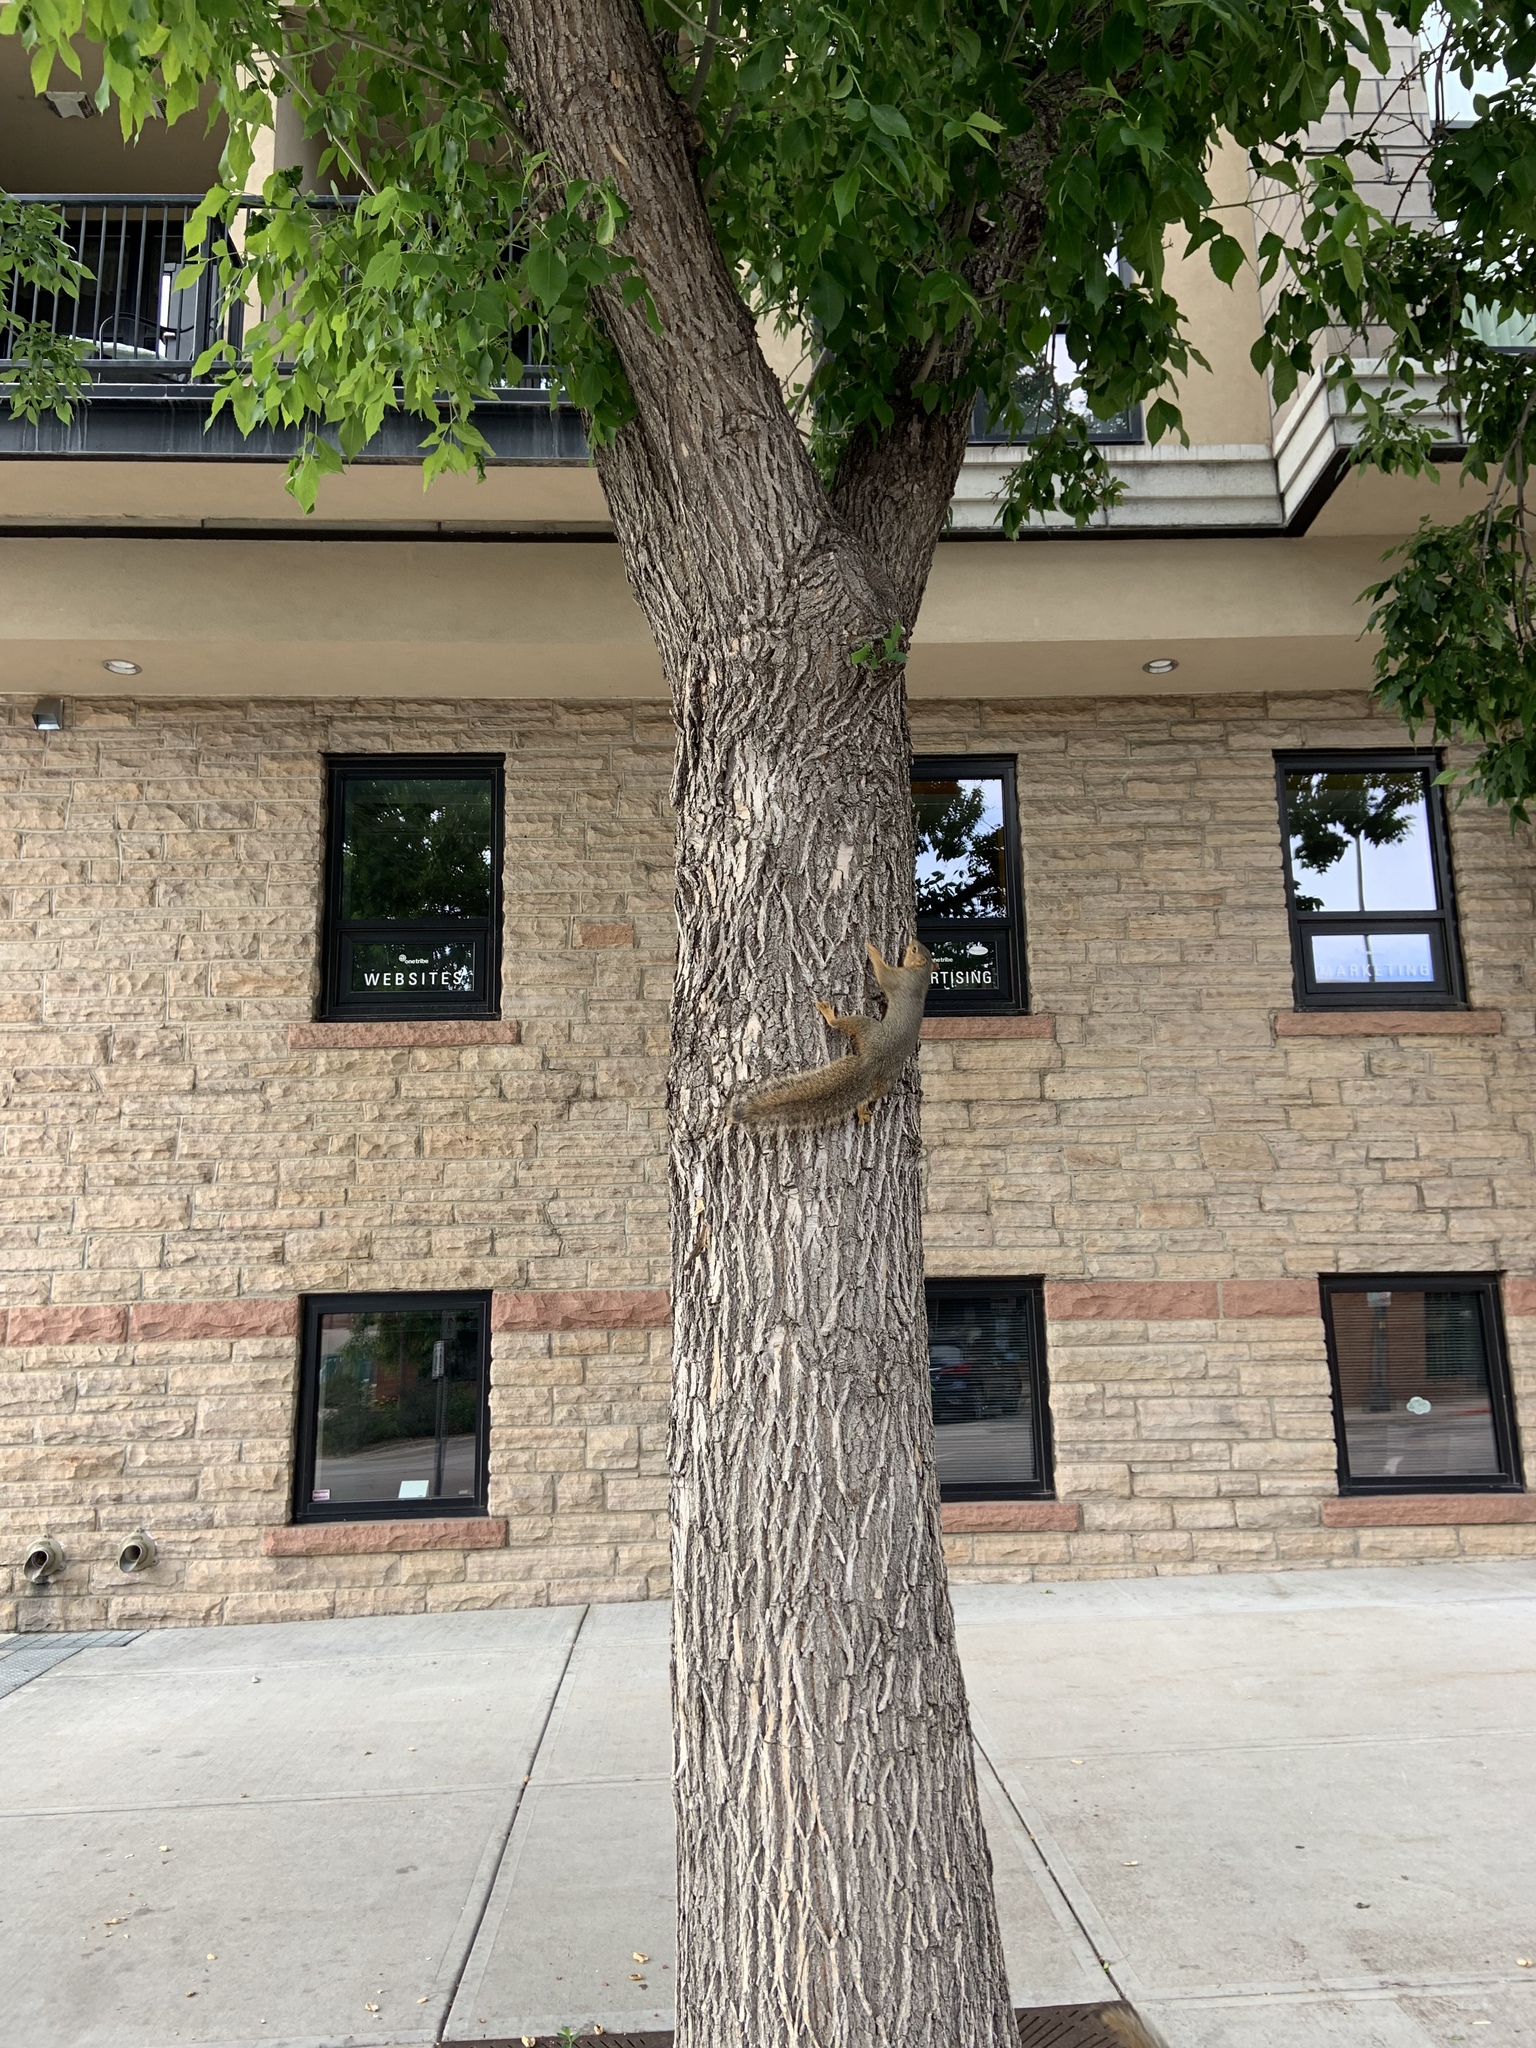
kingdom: Animalia
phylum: Chordata
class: Mammalia
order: Rodentia
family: Sciuridae
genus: Sciurus
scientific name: Sciurus niger
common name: Fox squirrel
